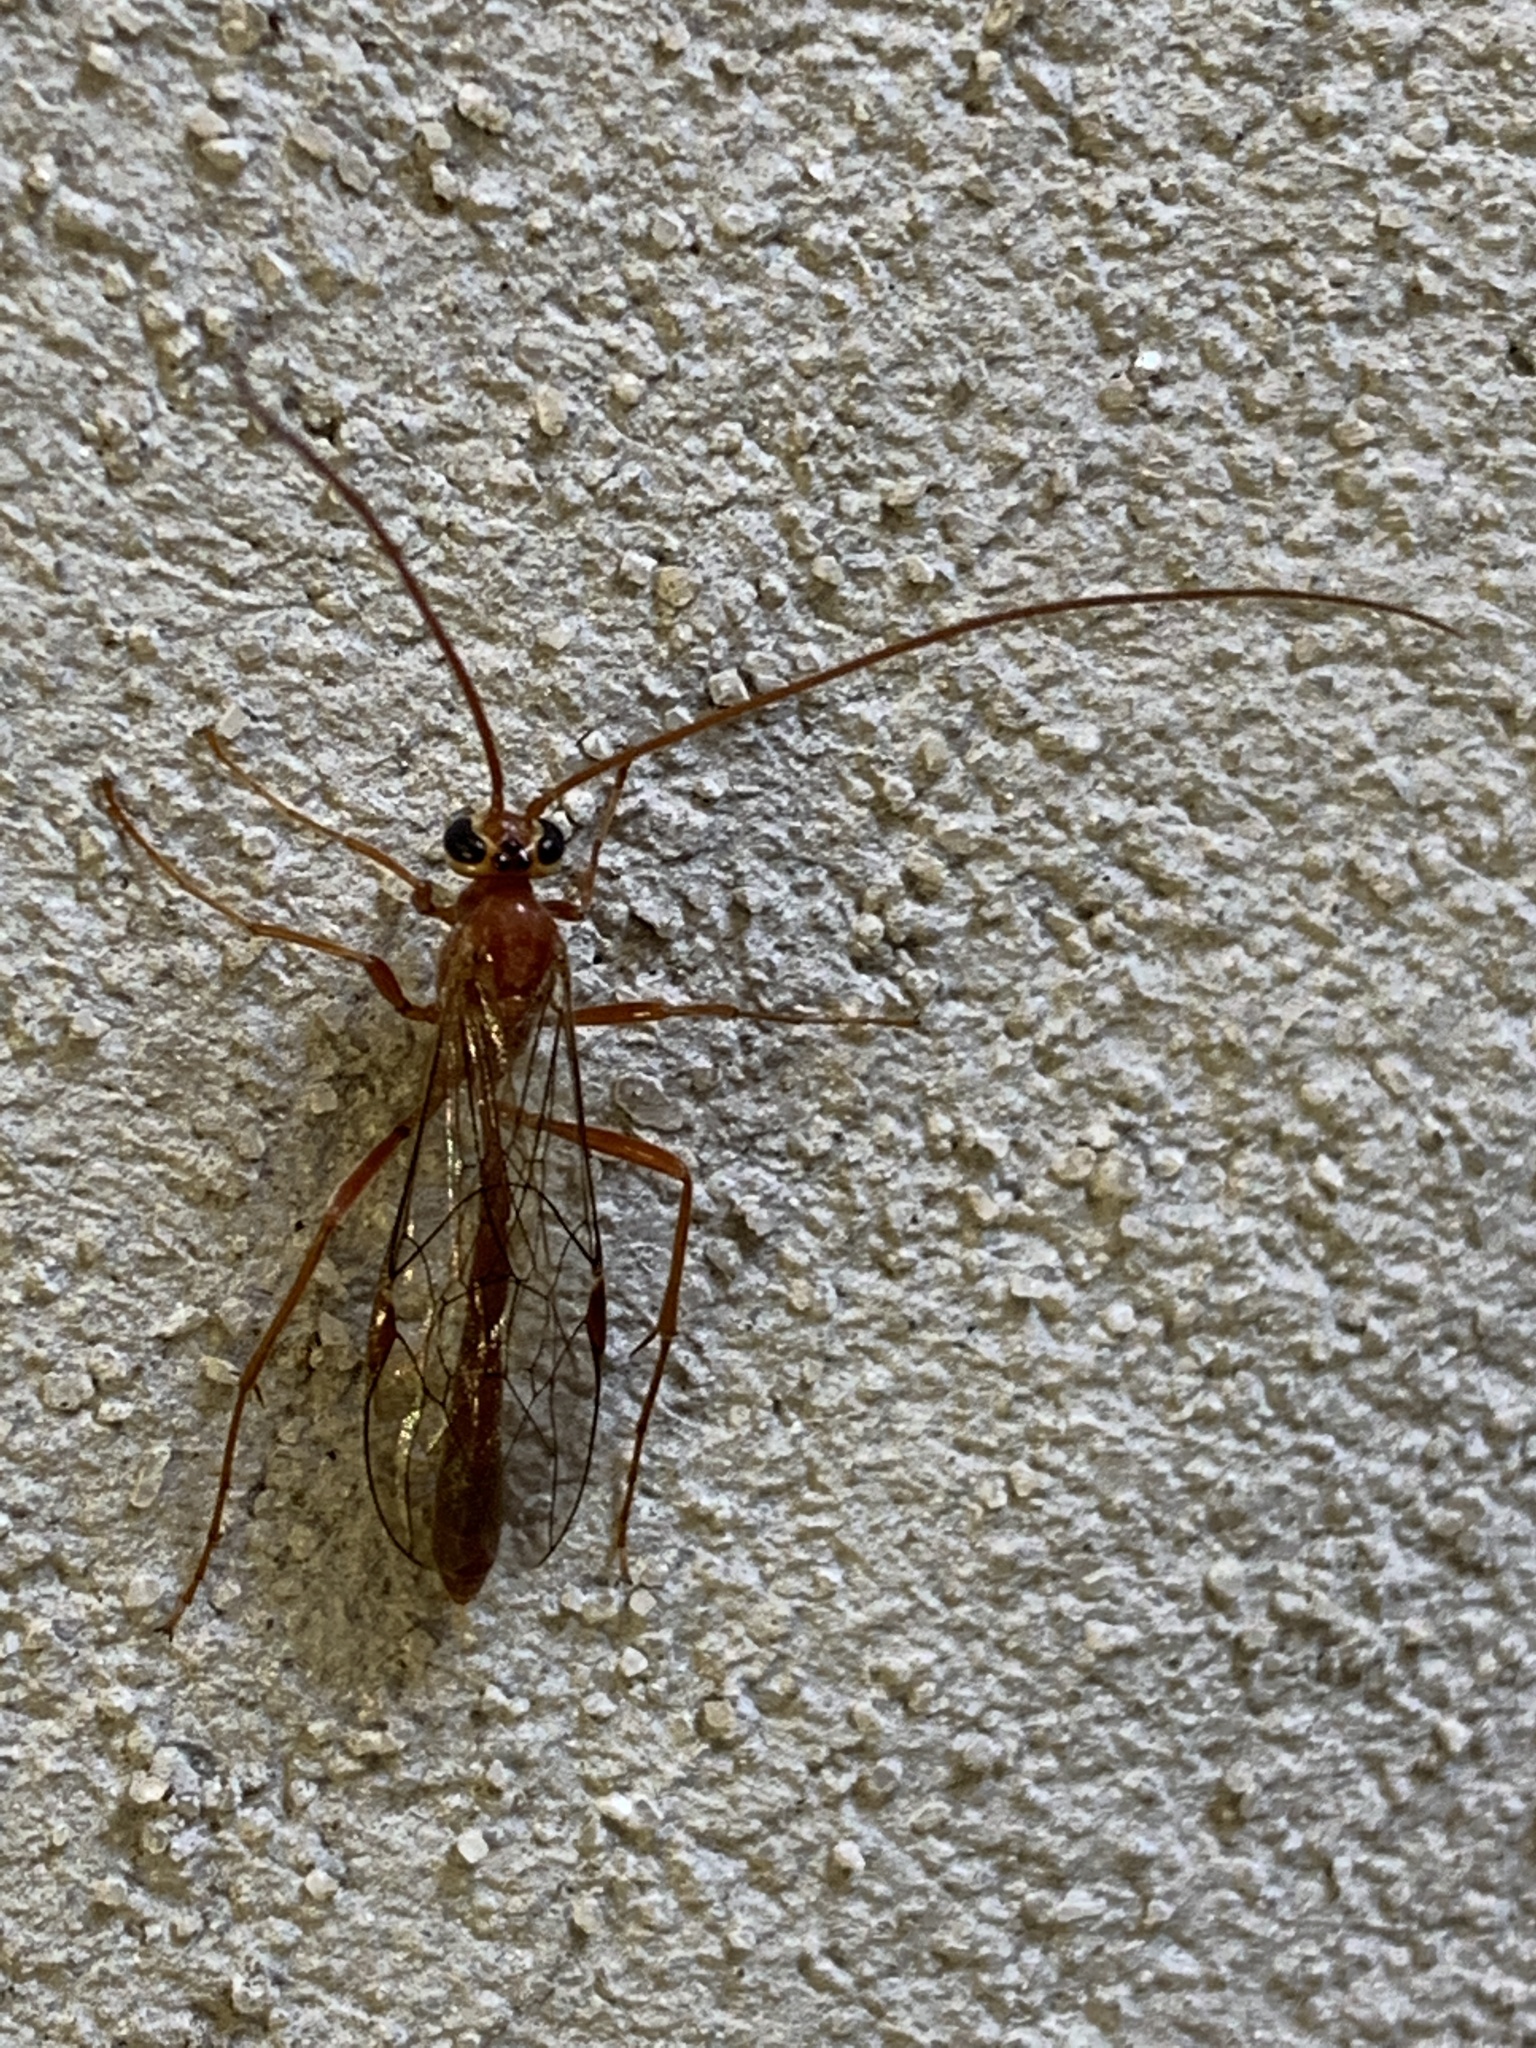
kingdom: Animalia
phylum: Arthropoda
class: Insecta
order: Hymenoptera
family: Ichneumonidae
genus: Ophion
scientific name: Ophion
